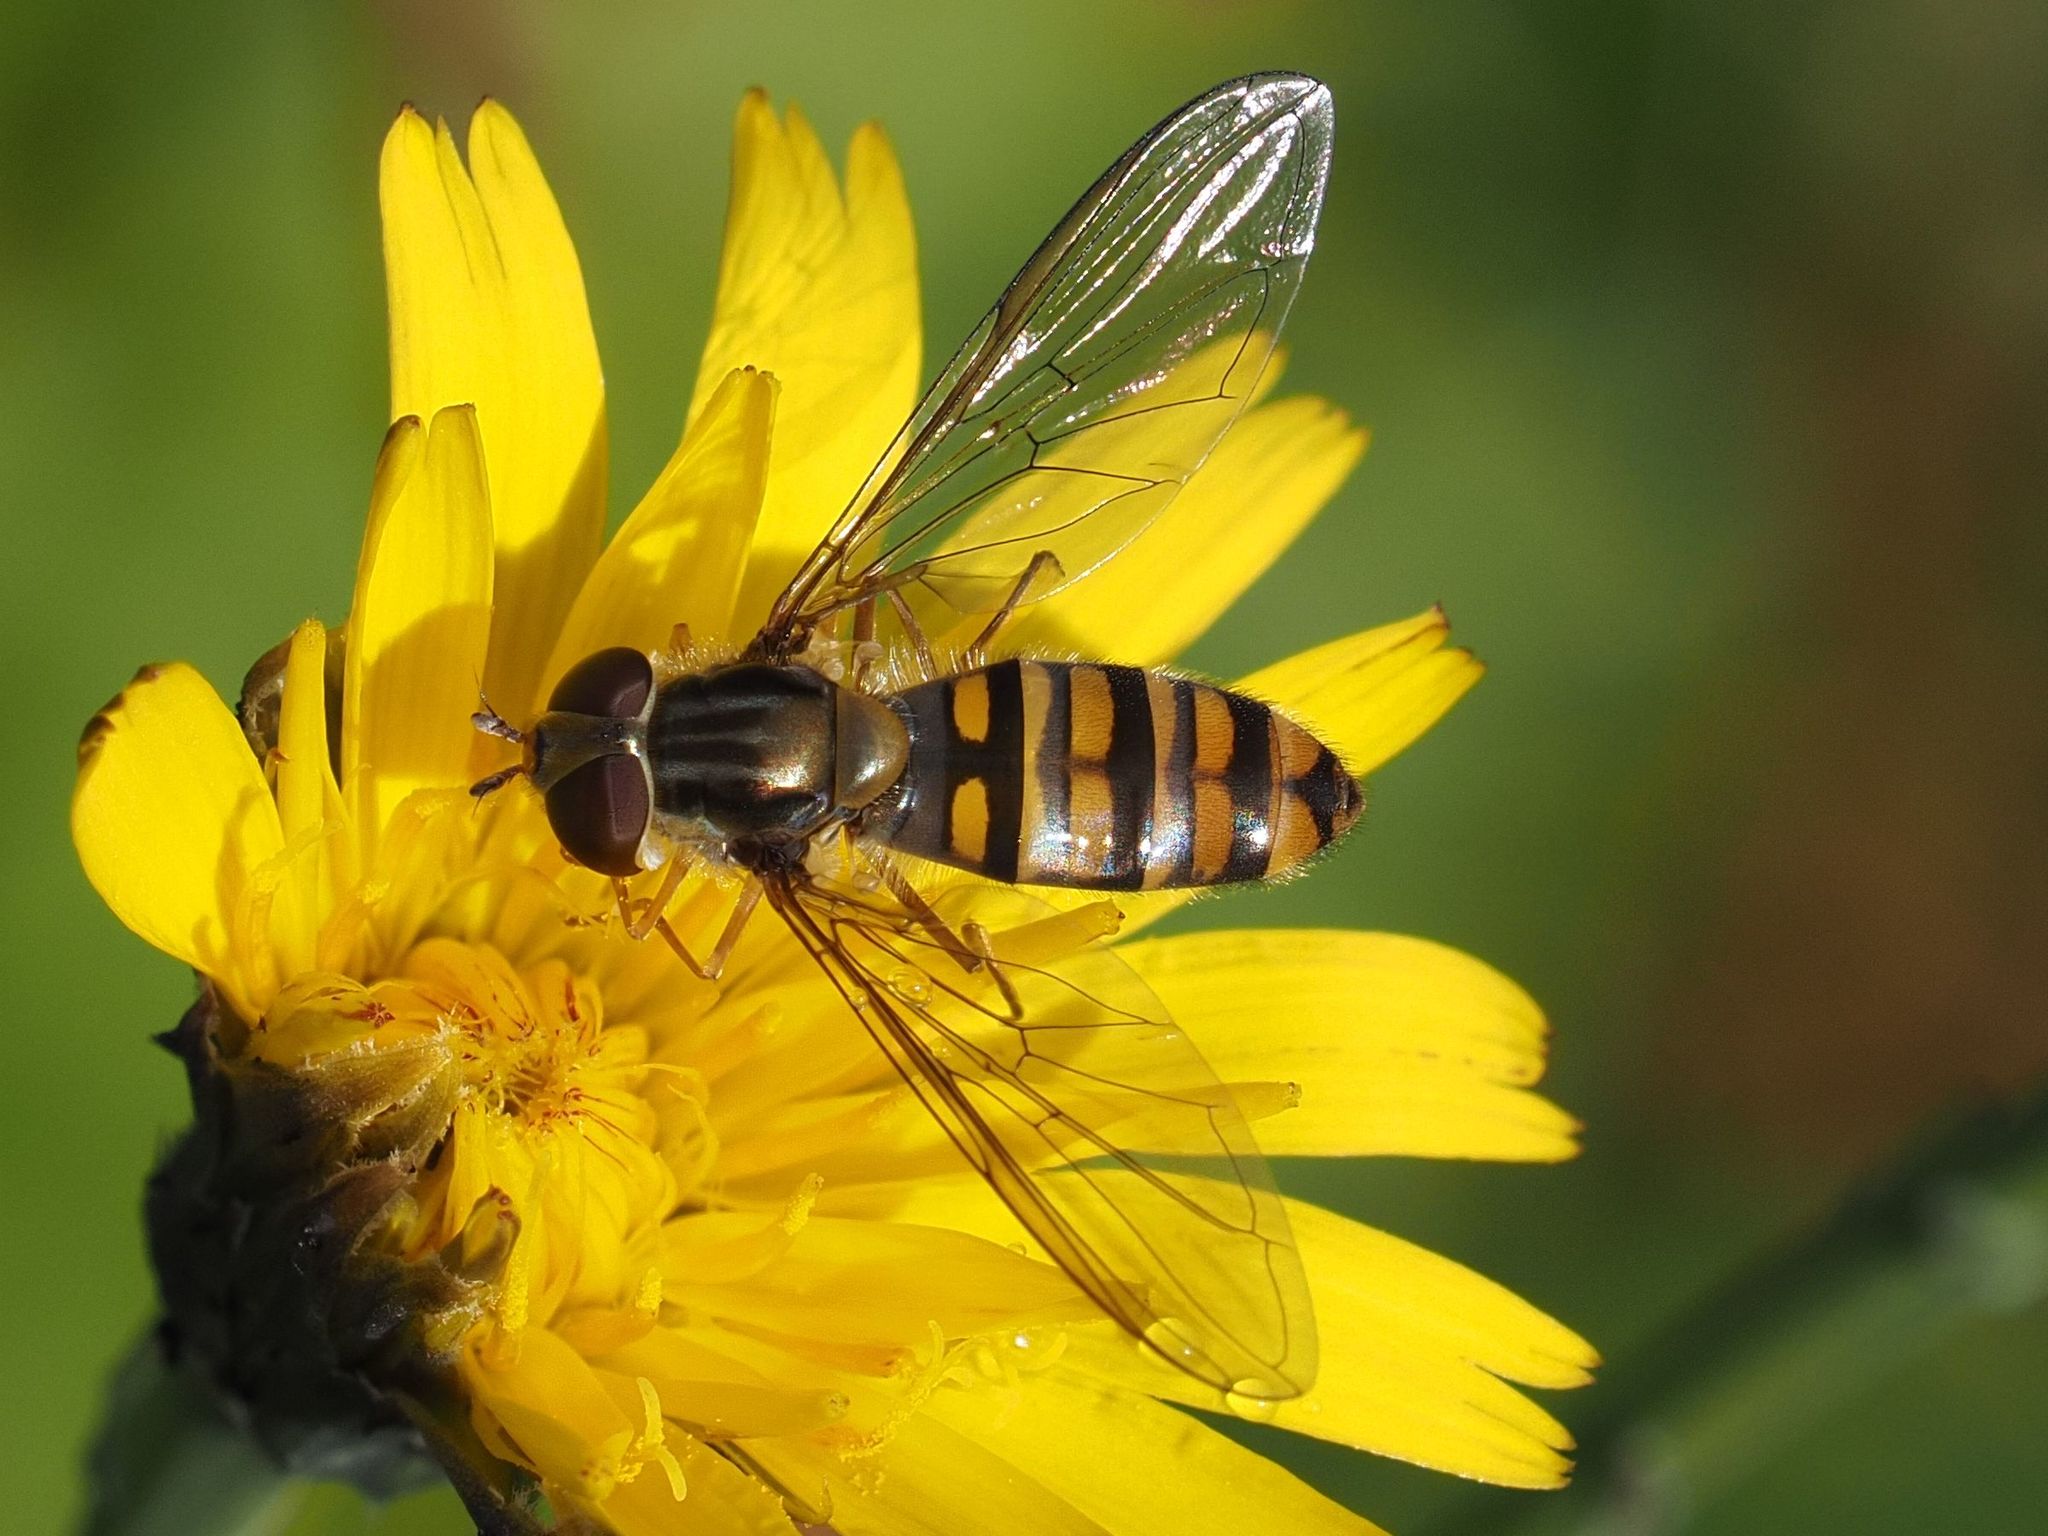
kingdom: Animalia
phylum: Arthropoda
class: Insecta
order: Diptera
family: Syrphidae
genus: Episyrphus
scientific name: Episyrphus balteatus
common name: Marmalade hoverfly
